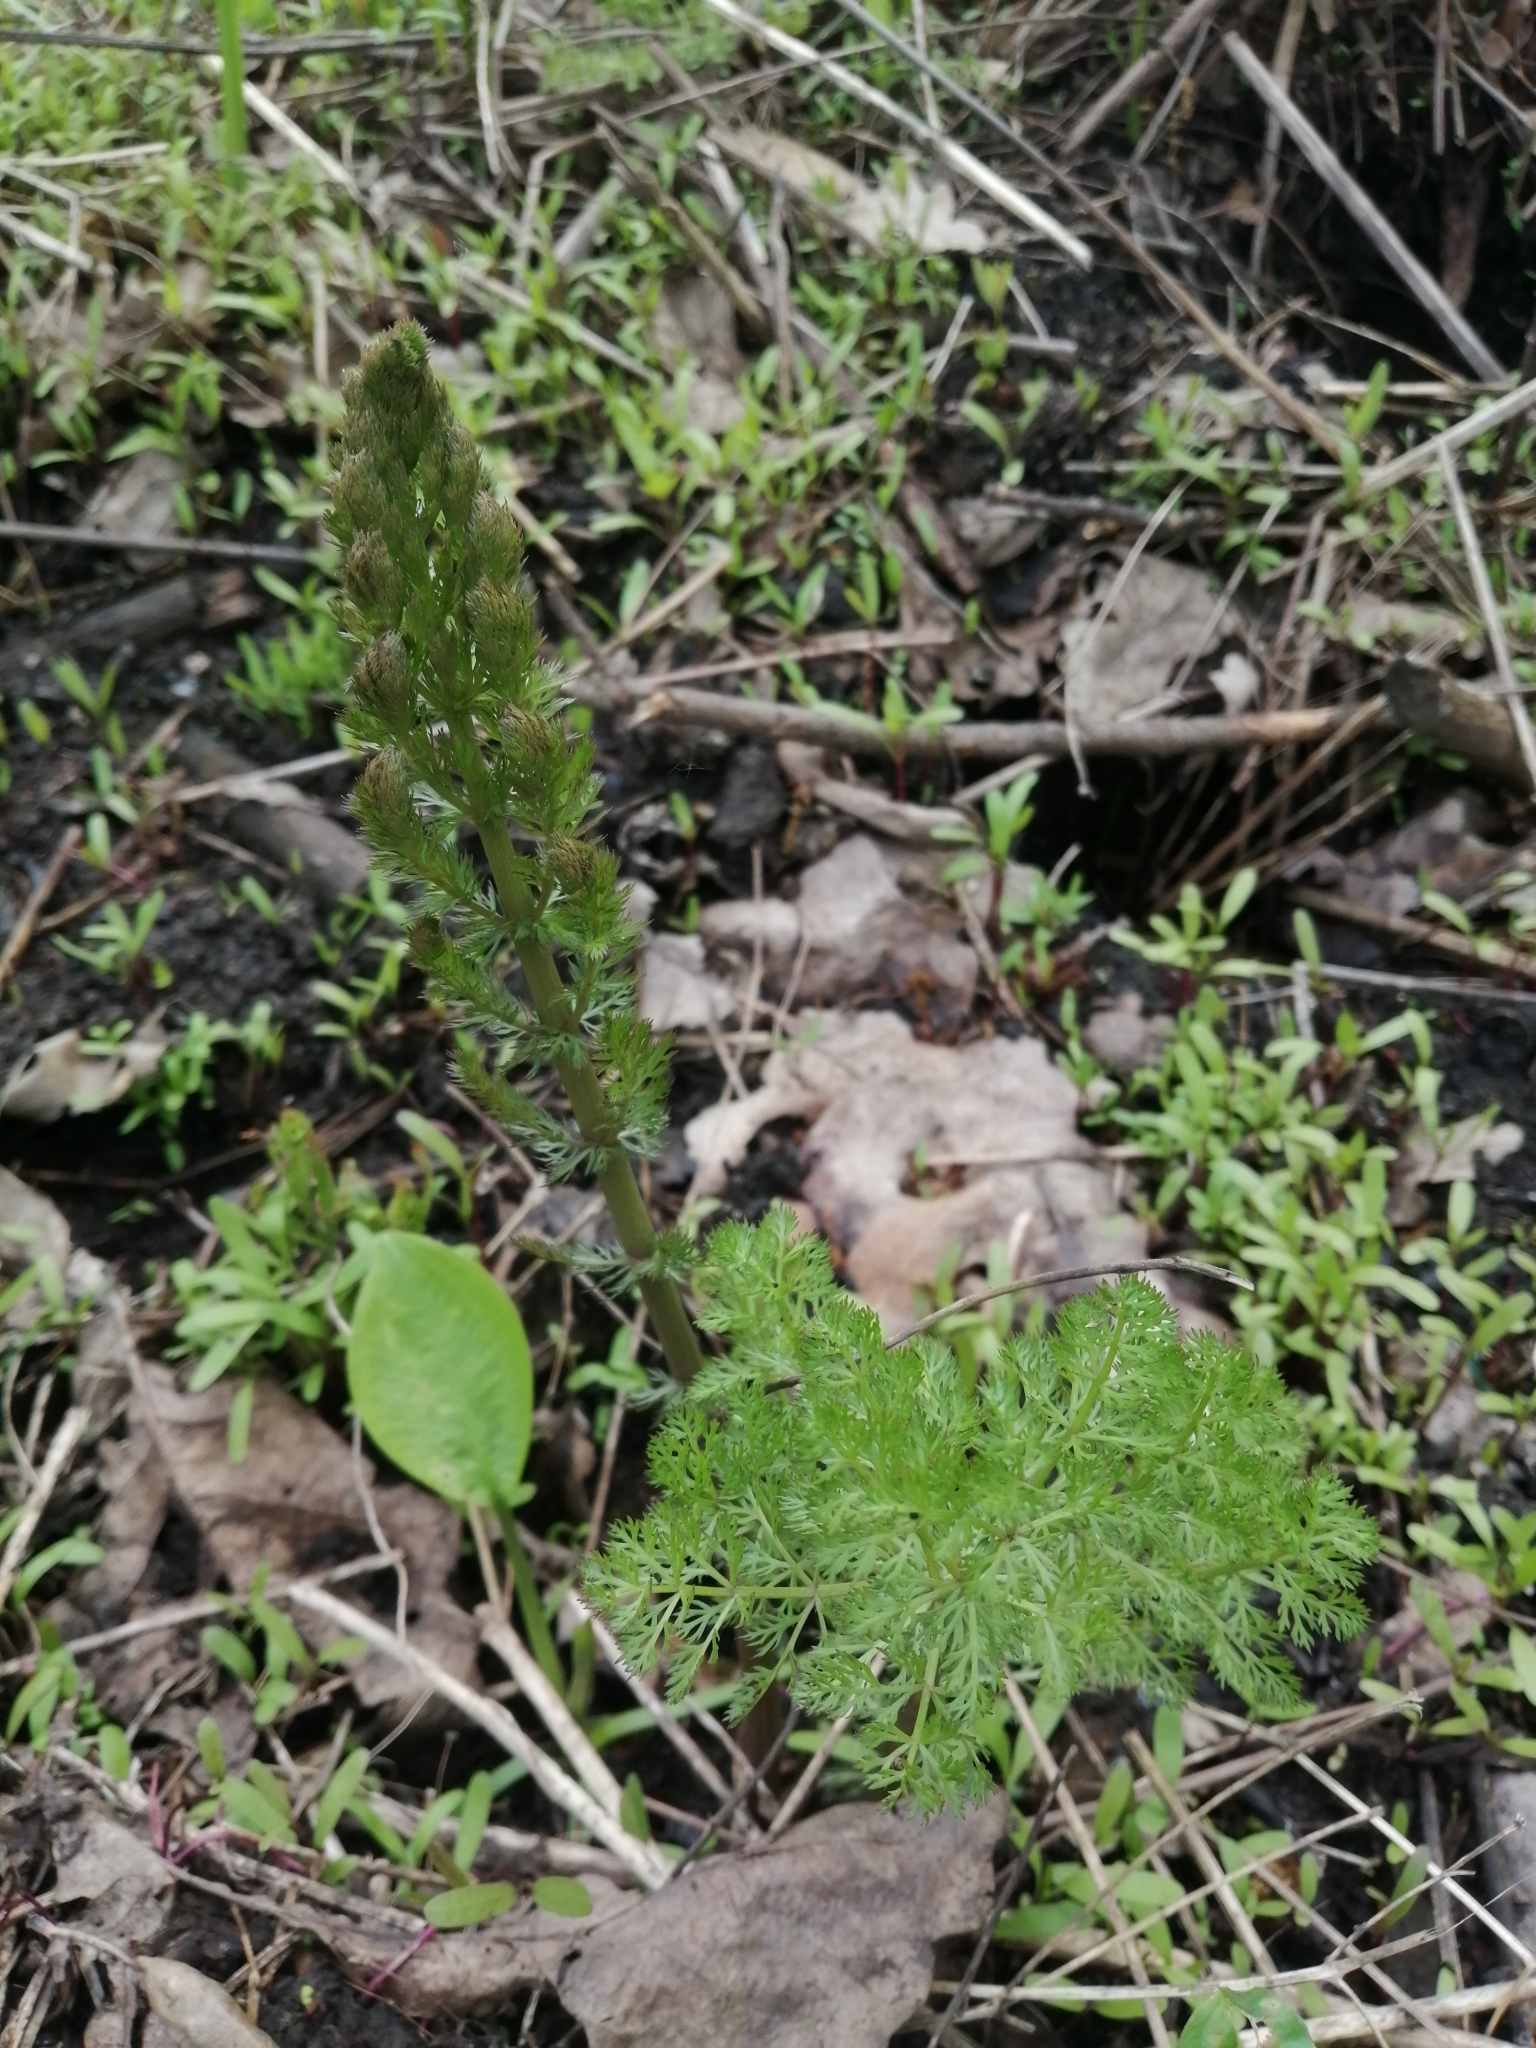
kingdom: Plantae
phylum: Tracheophyta
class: Magnoliopsida
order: Apiales
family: Apiaceae
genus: Oenanthe
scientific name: Oenanthe aquatica
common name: Fine-leaved water-dropwort
